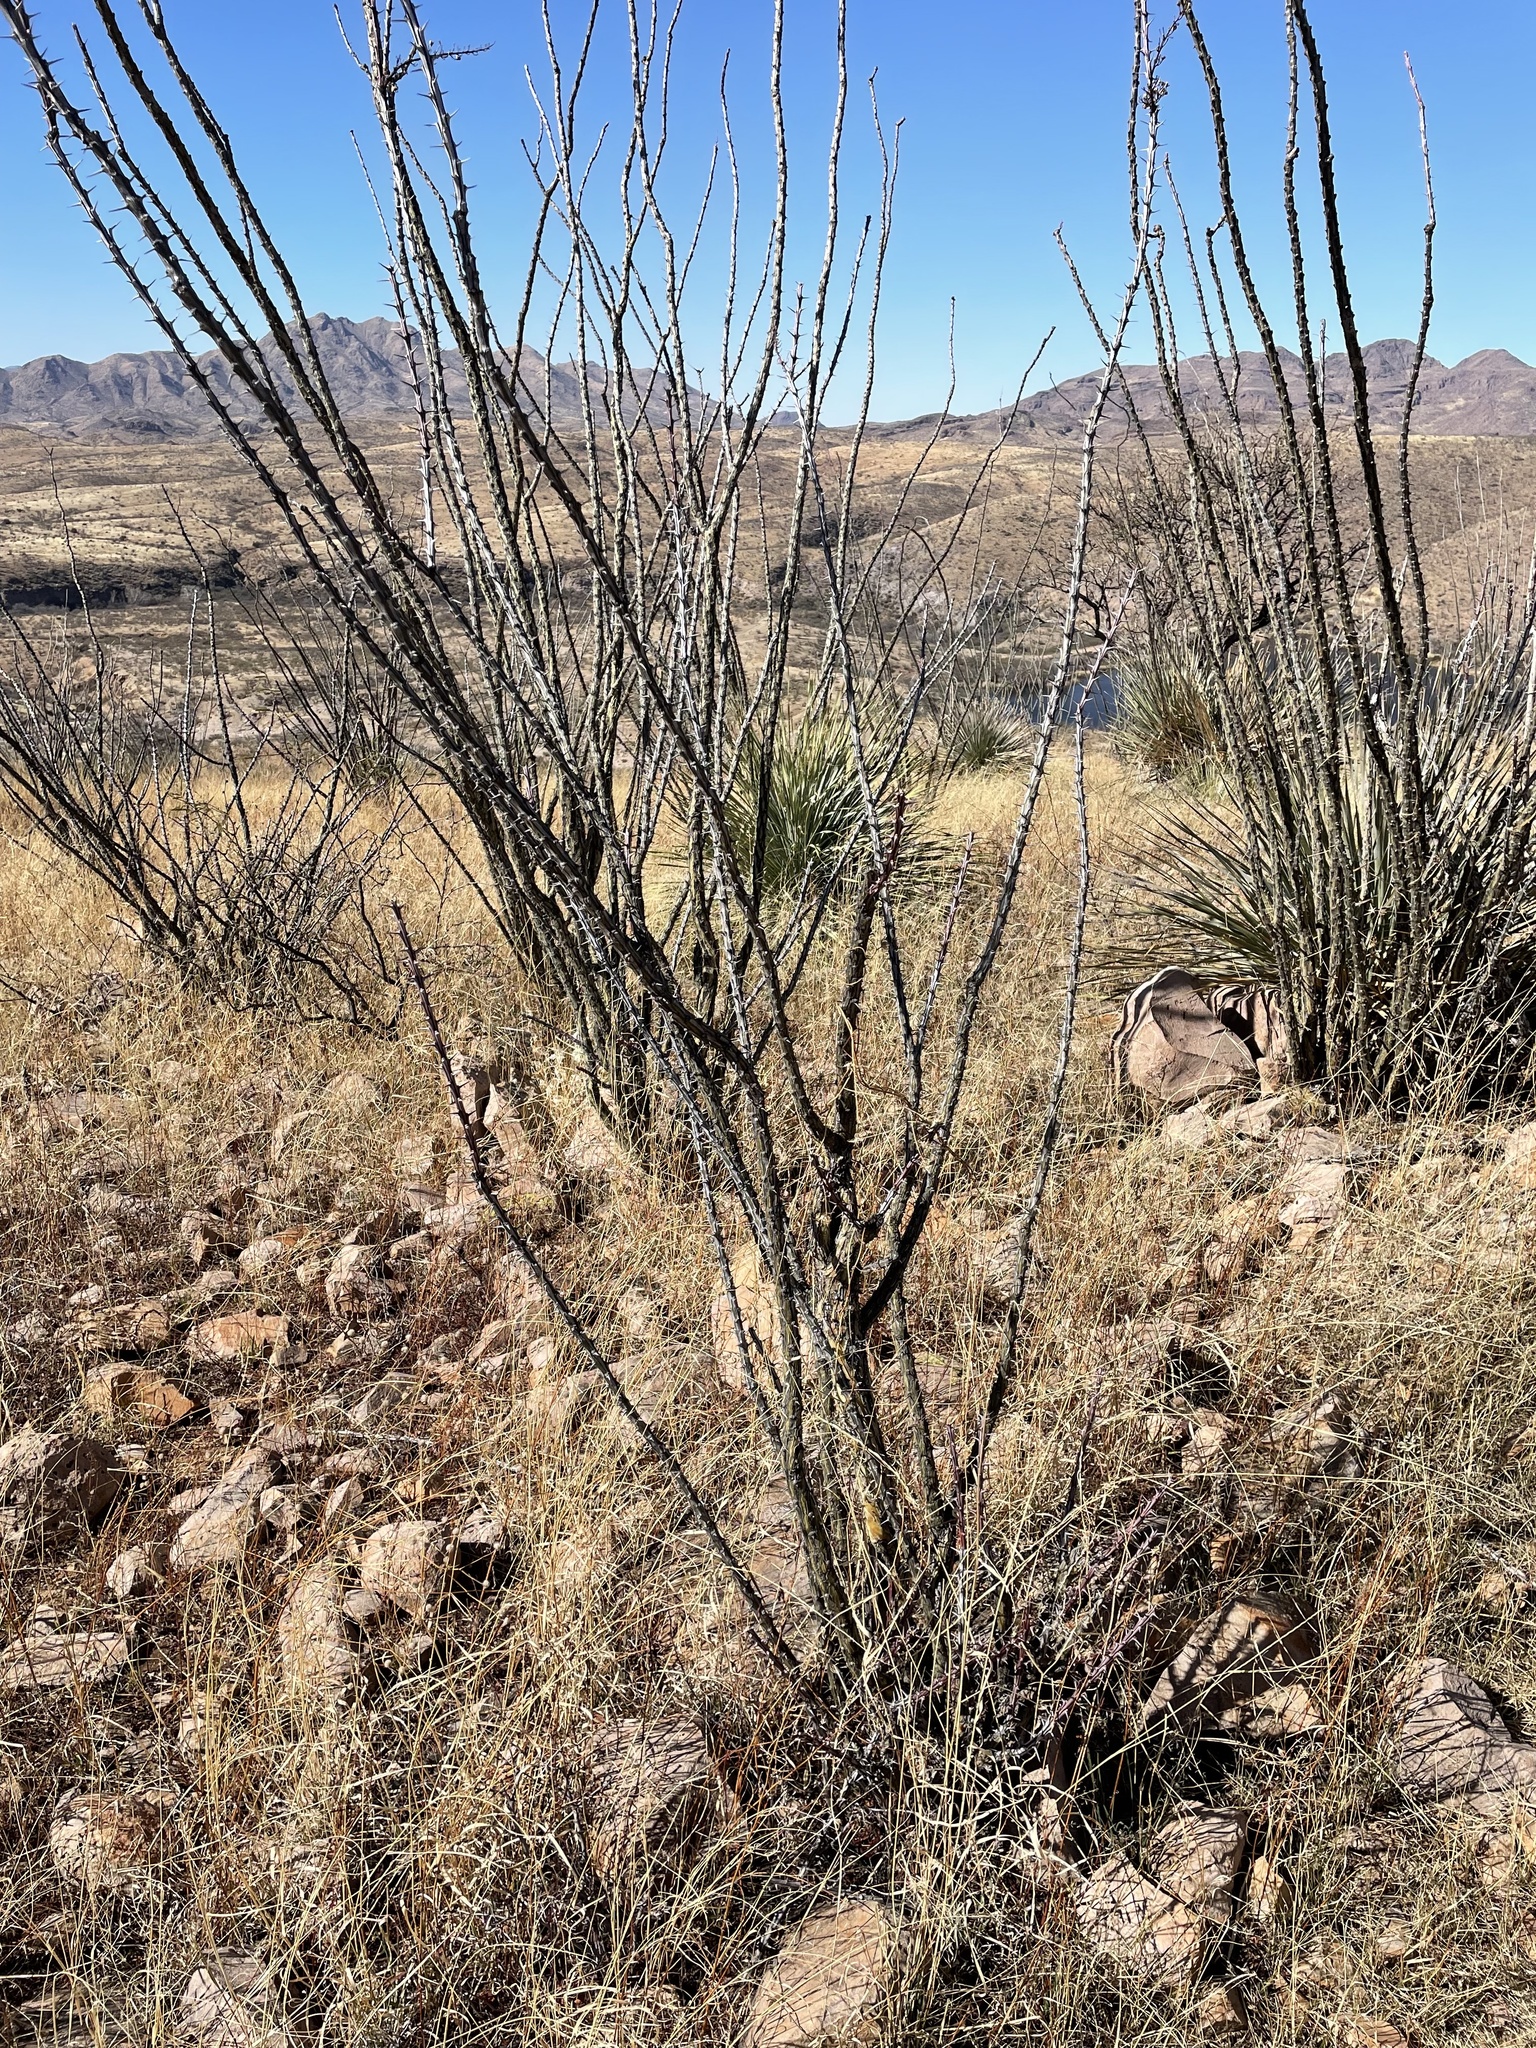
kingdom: Plantae
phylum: Tracheophyta
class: Magnoliopsida
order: Ericales
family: Fouquieriaceae
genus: Fouquieria
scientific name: Fouquieria splendens
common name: Vine-cactus
